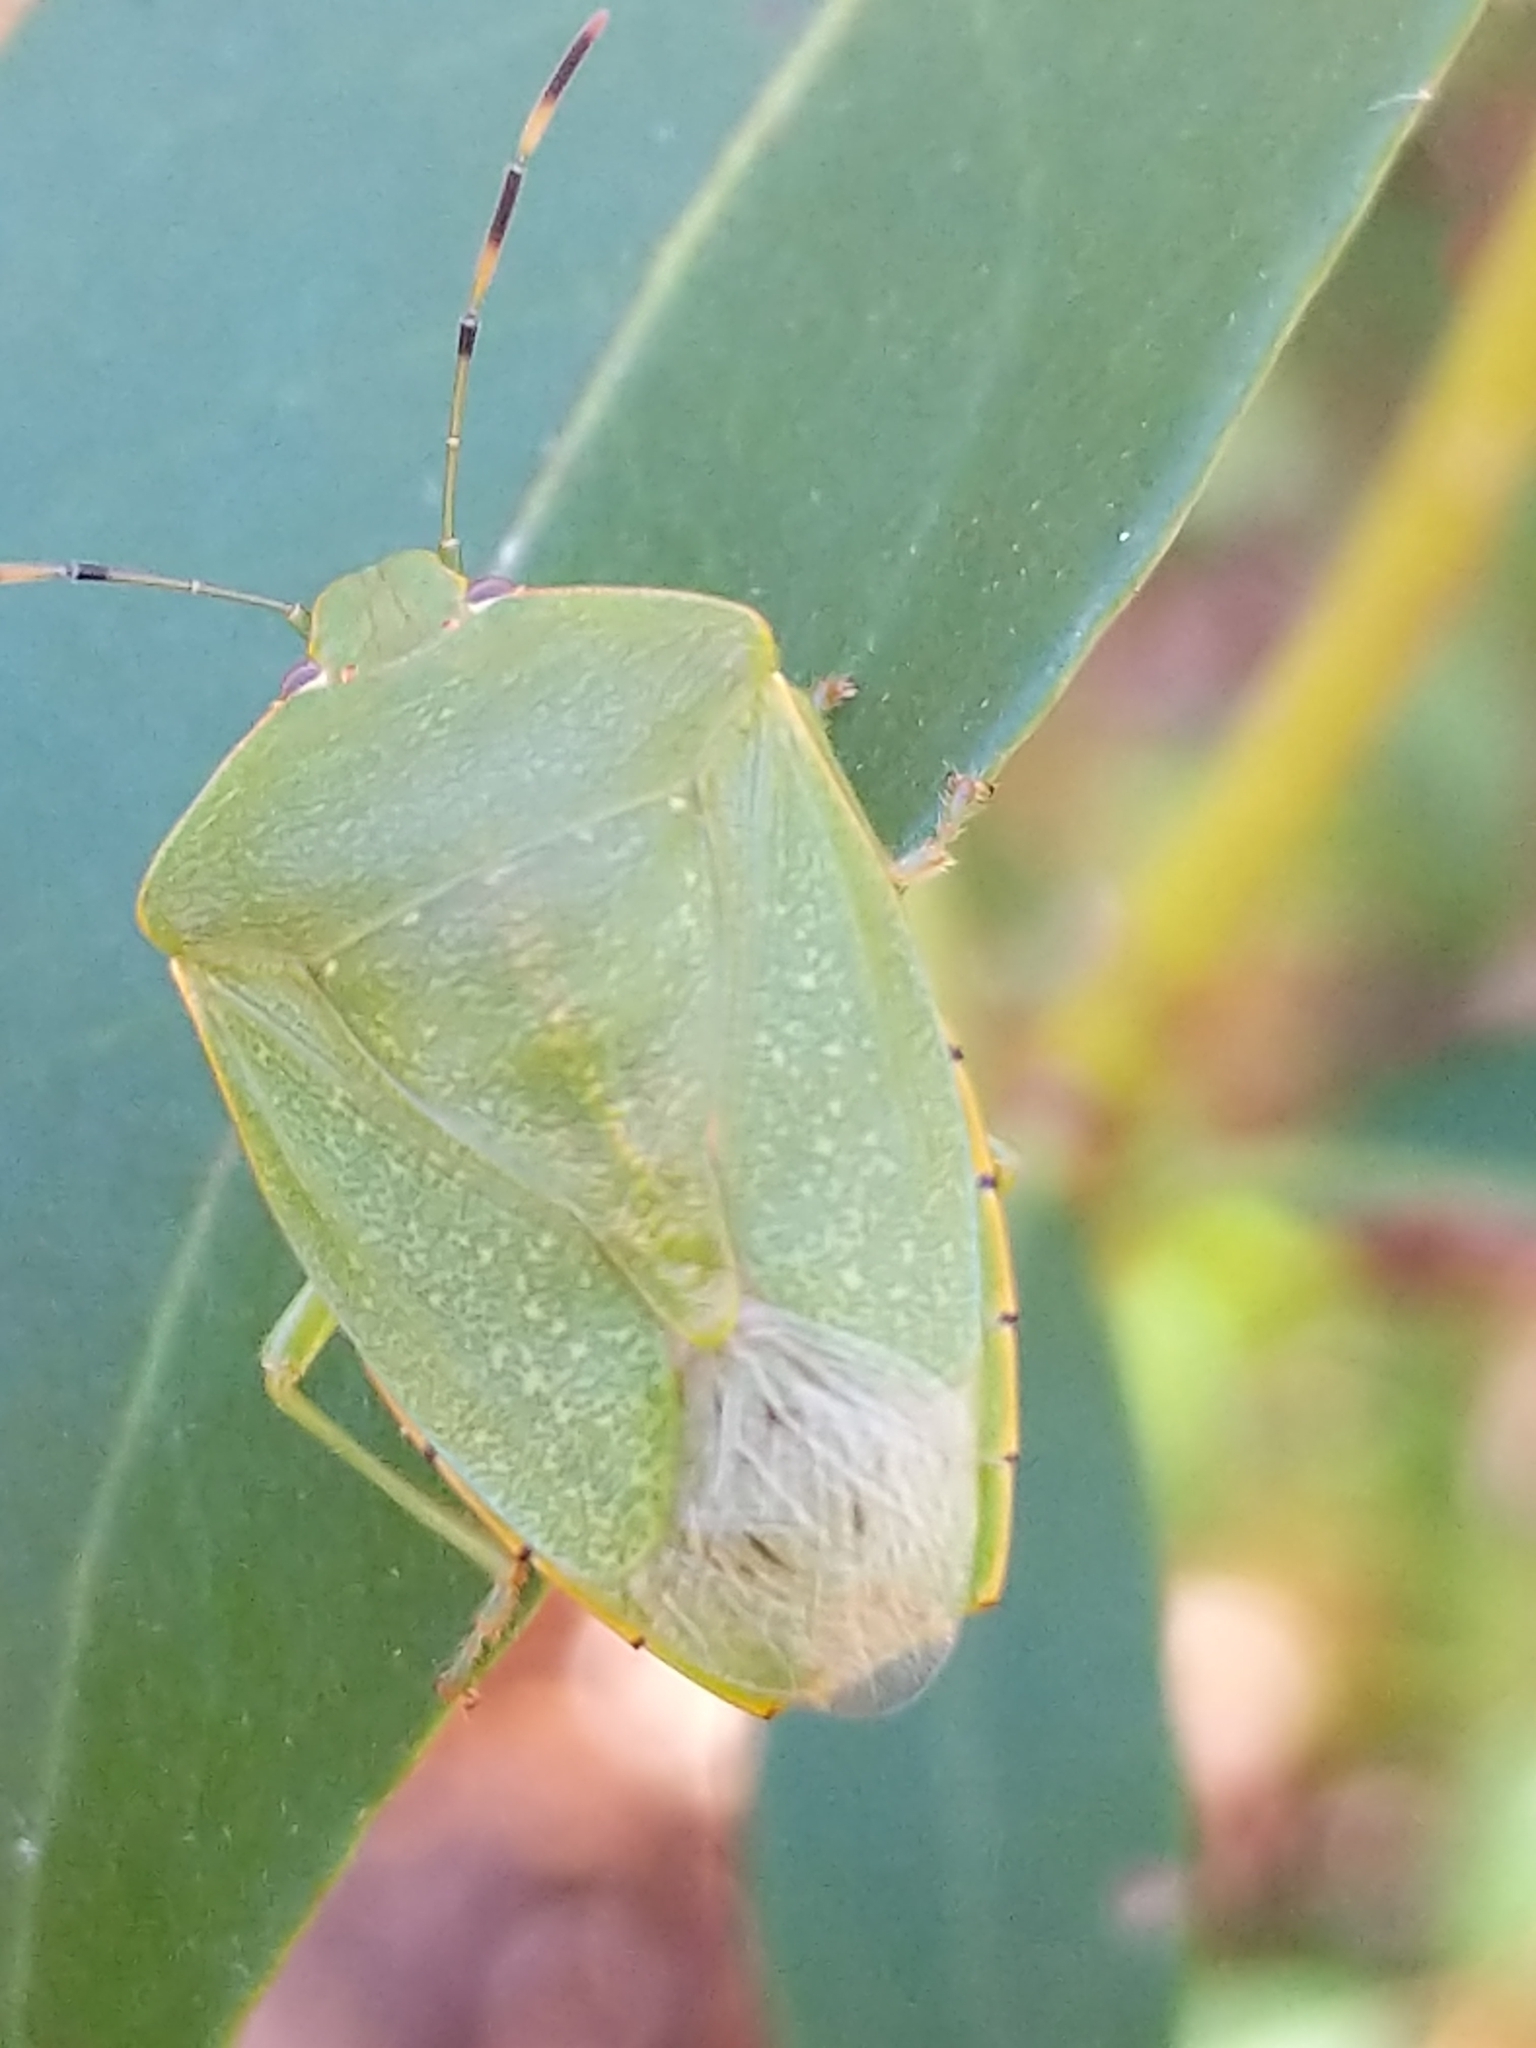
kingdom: Animalia
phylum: Arthropoda
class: Insecta
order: Hemiptera
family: Pentatomidae
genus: Chinavia
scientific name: Chinavia hilaris
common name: Green stink bug
